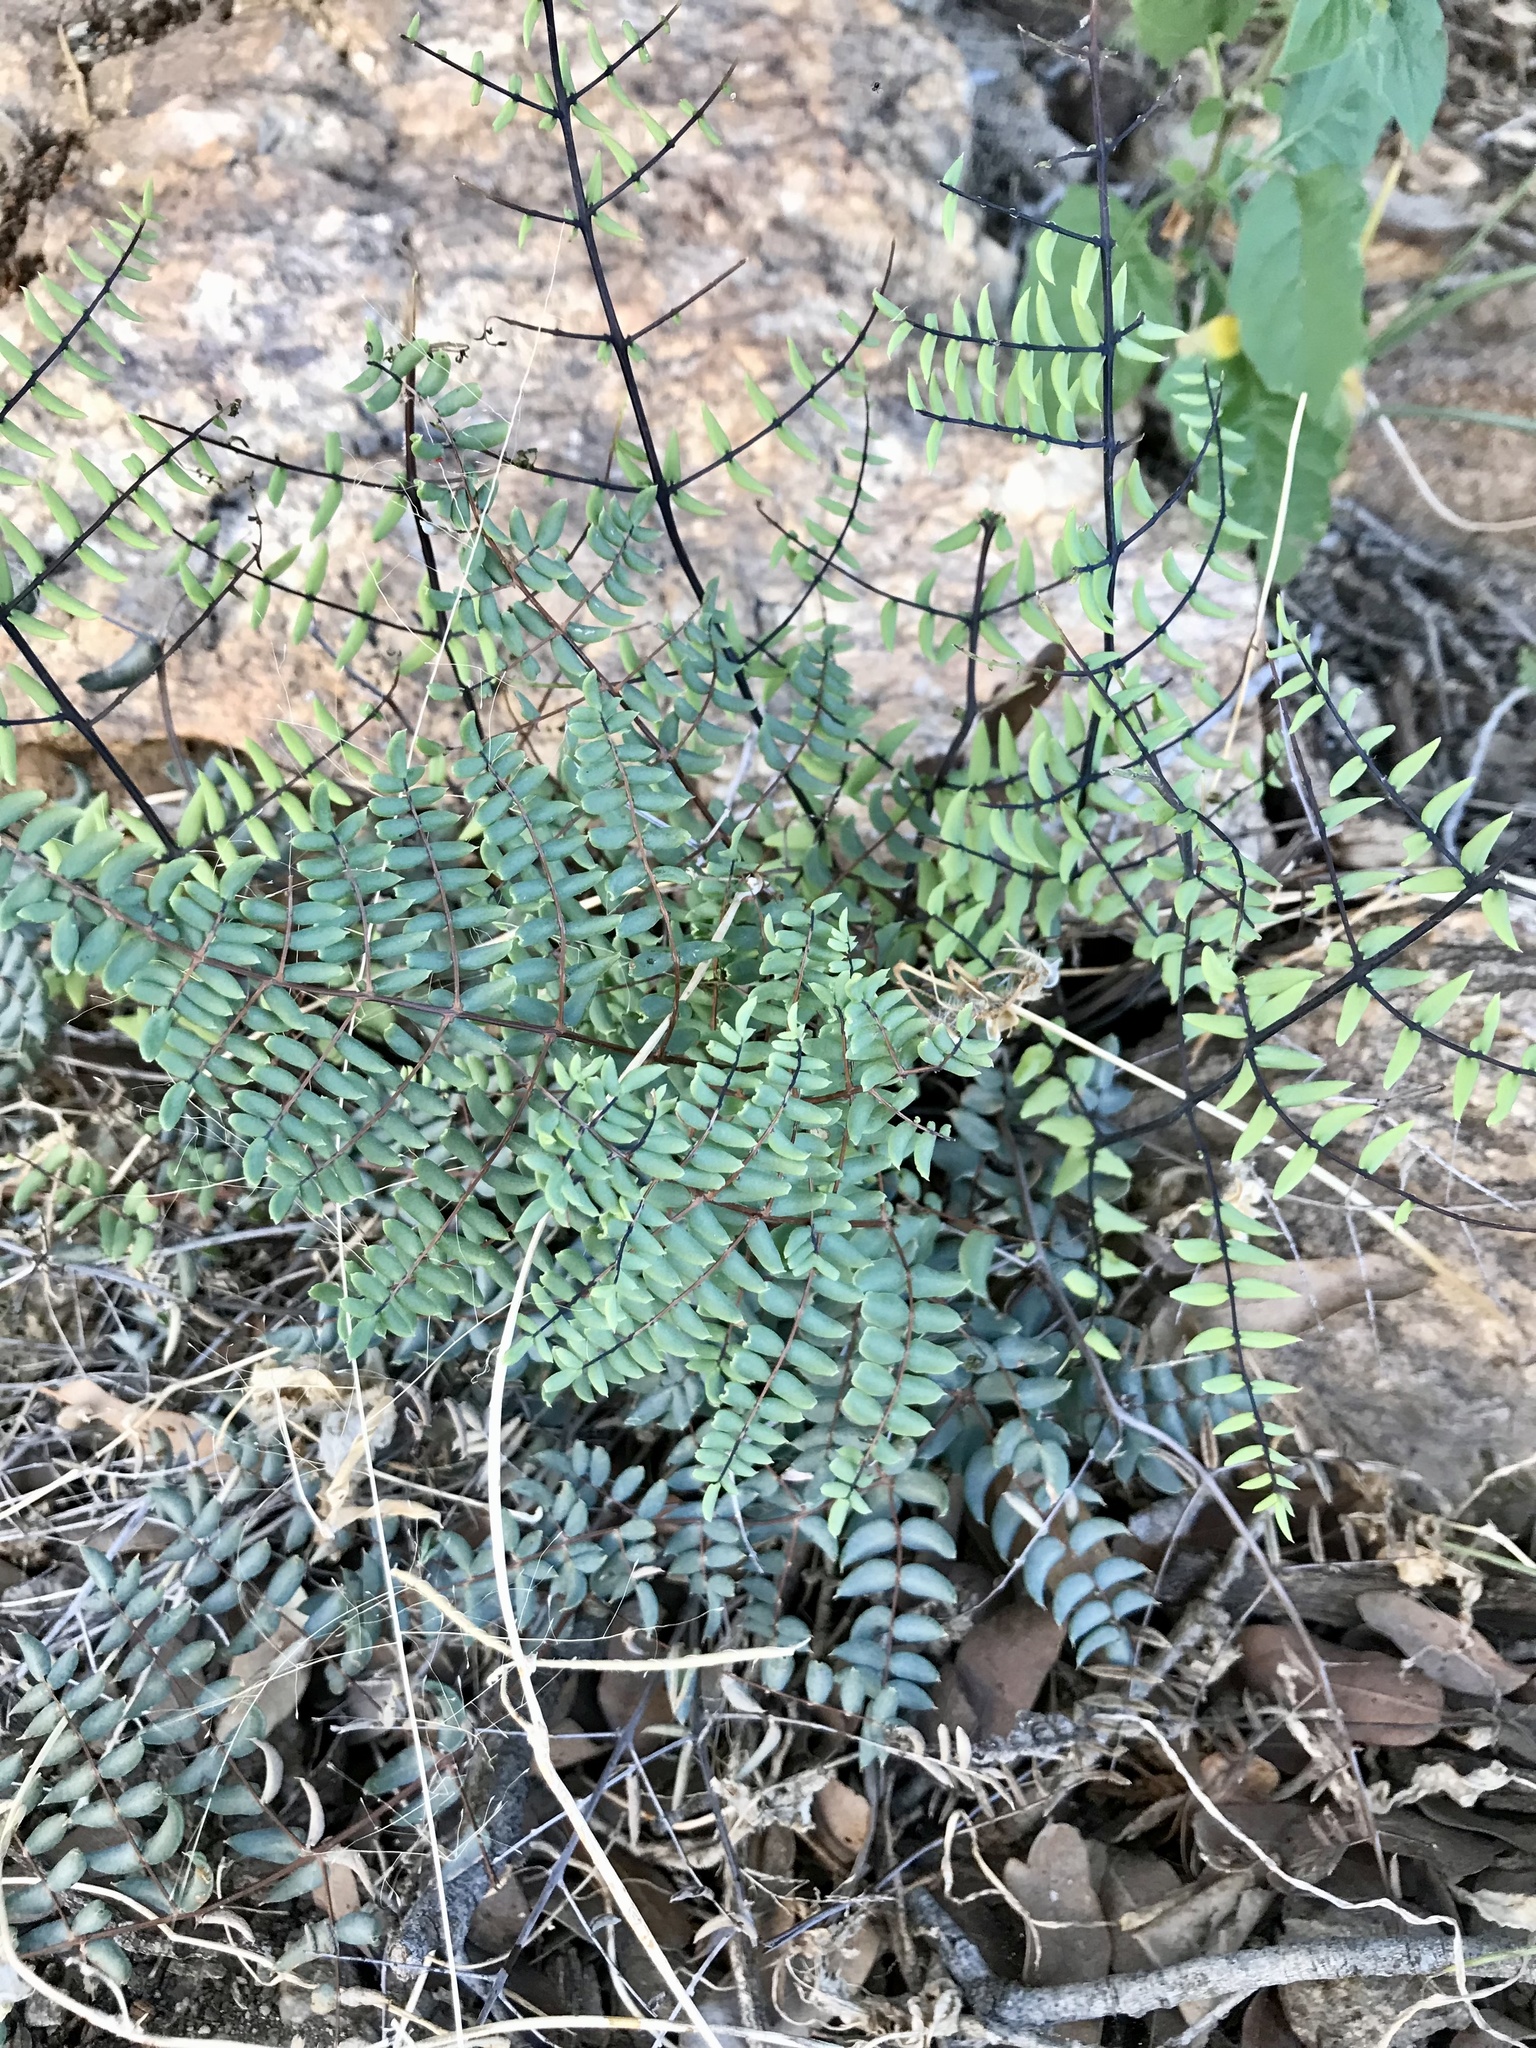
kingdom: Plantae
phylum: Tracheophyta
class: Polypodiopsida
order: Polypodiales
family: Pteridaceae
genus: Pellaea
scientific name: Pellaea truncata
